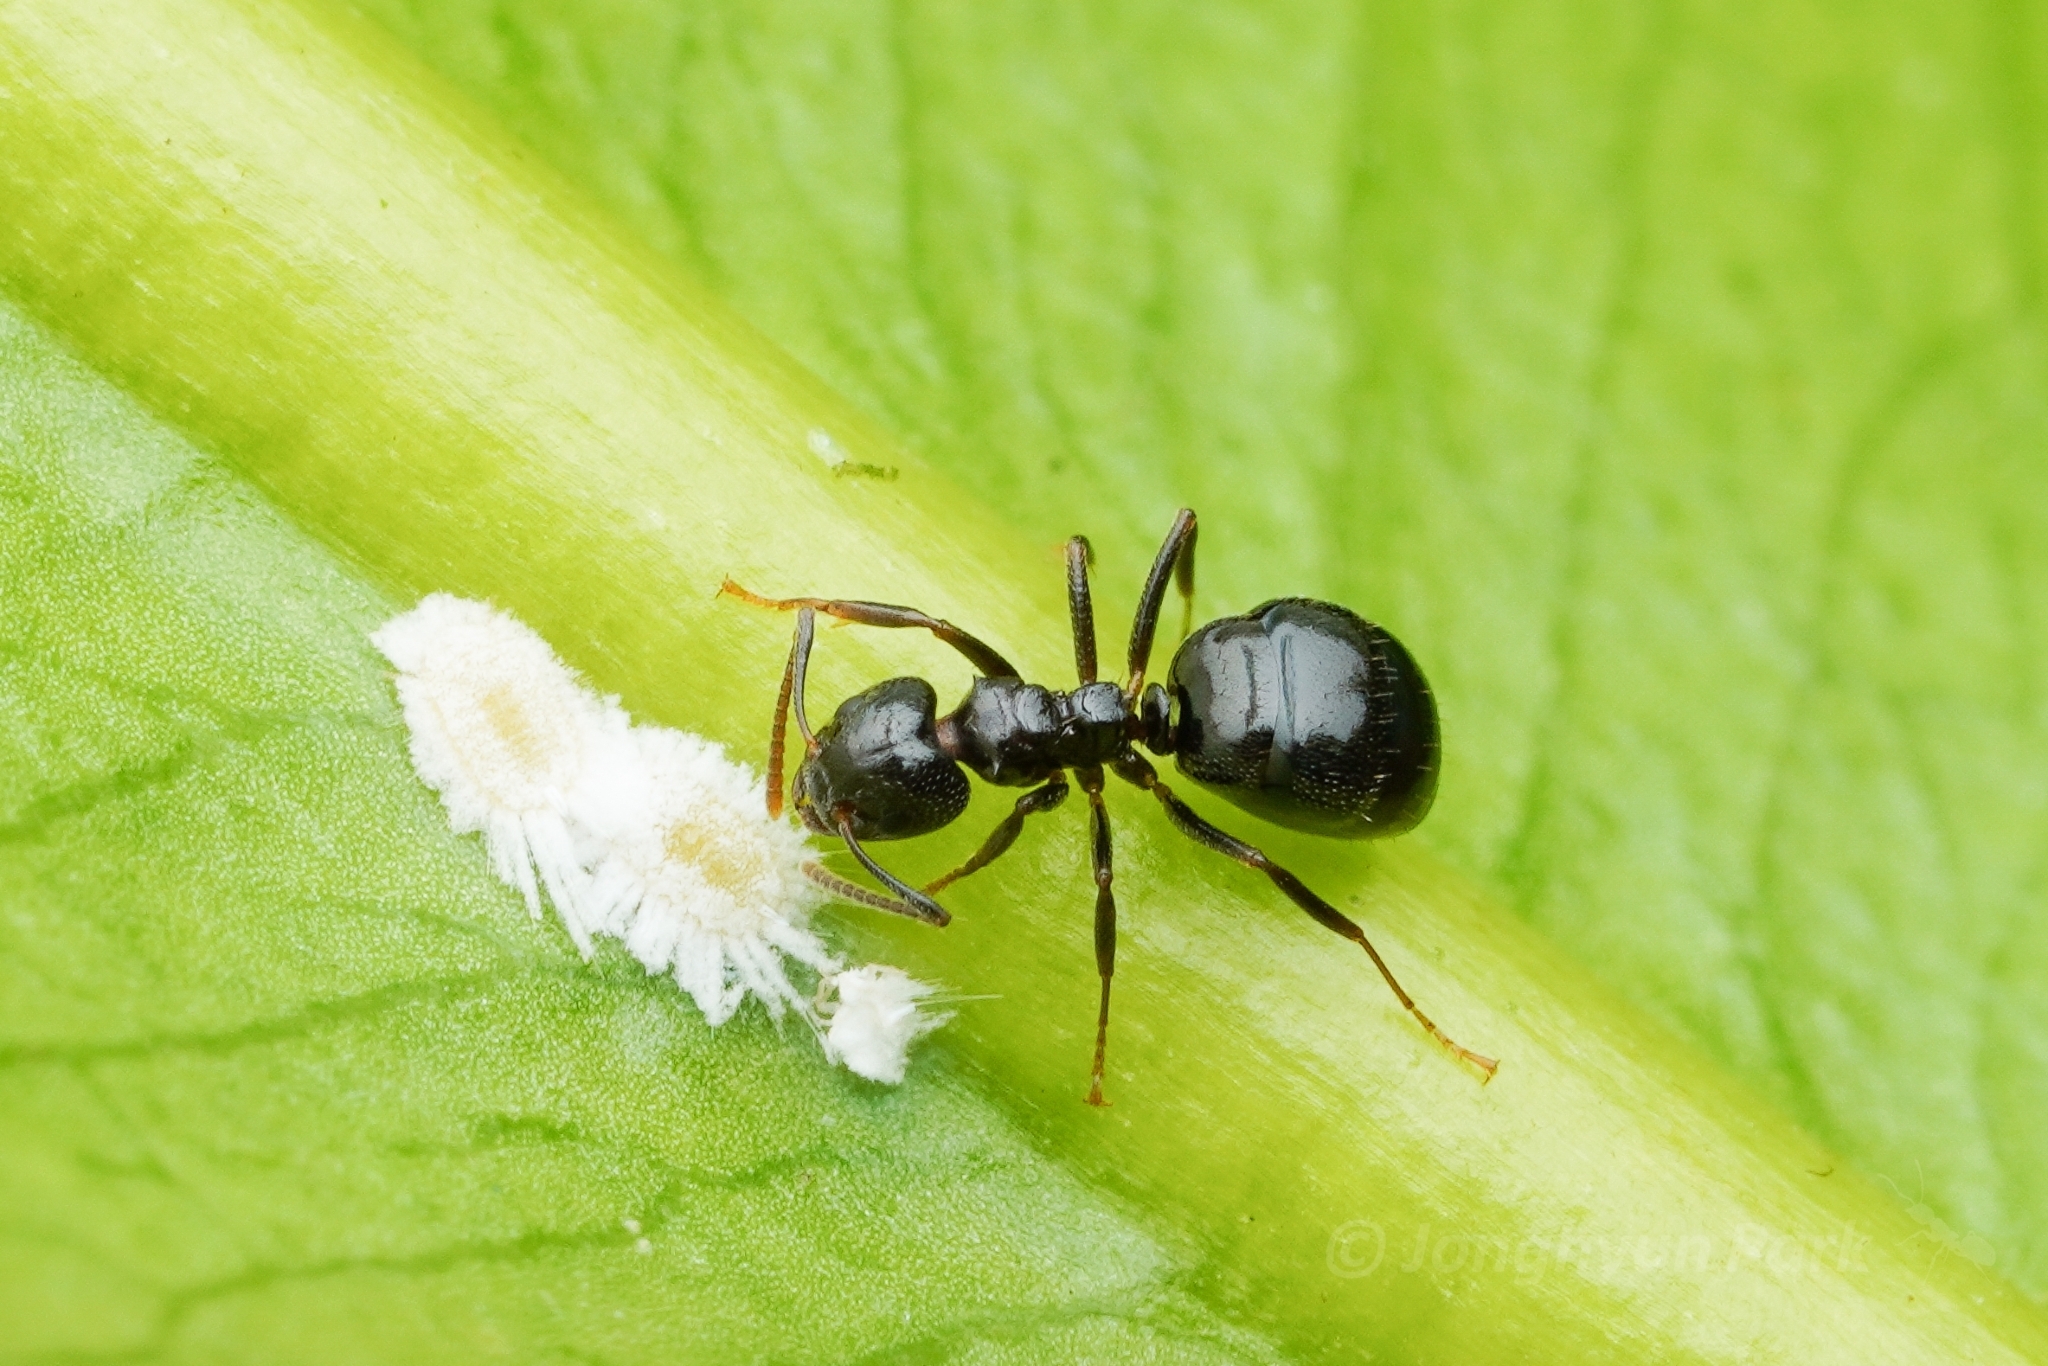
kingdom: Animalia
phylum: Arthropoda
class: Insecta
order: Hymenoptera
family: Formicidae
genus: Dolichoderus
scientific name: Dolichoderus debilis
